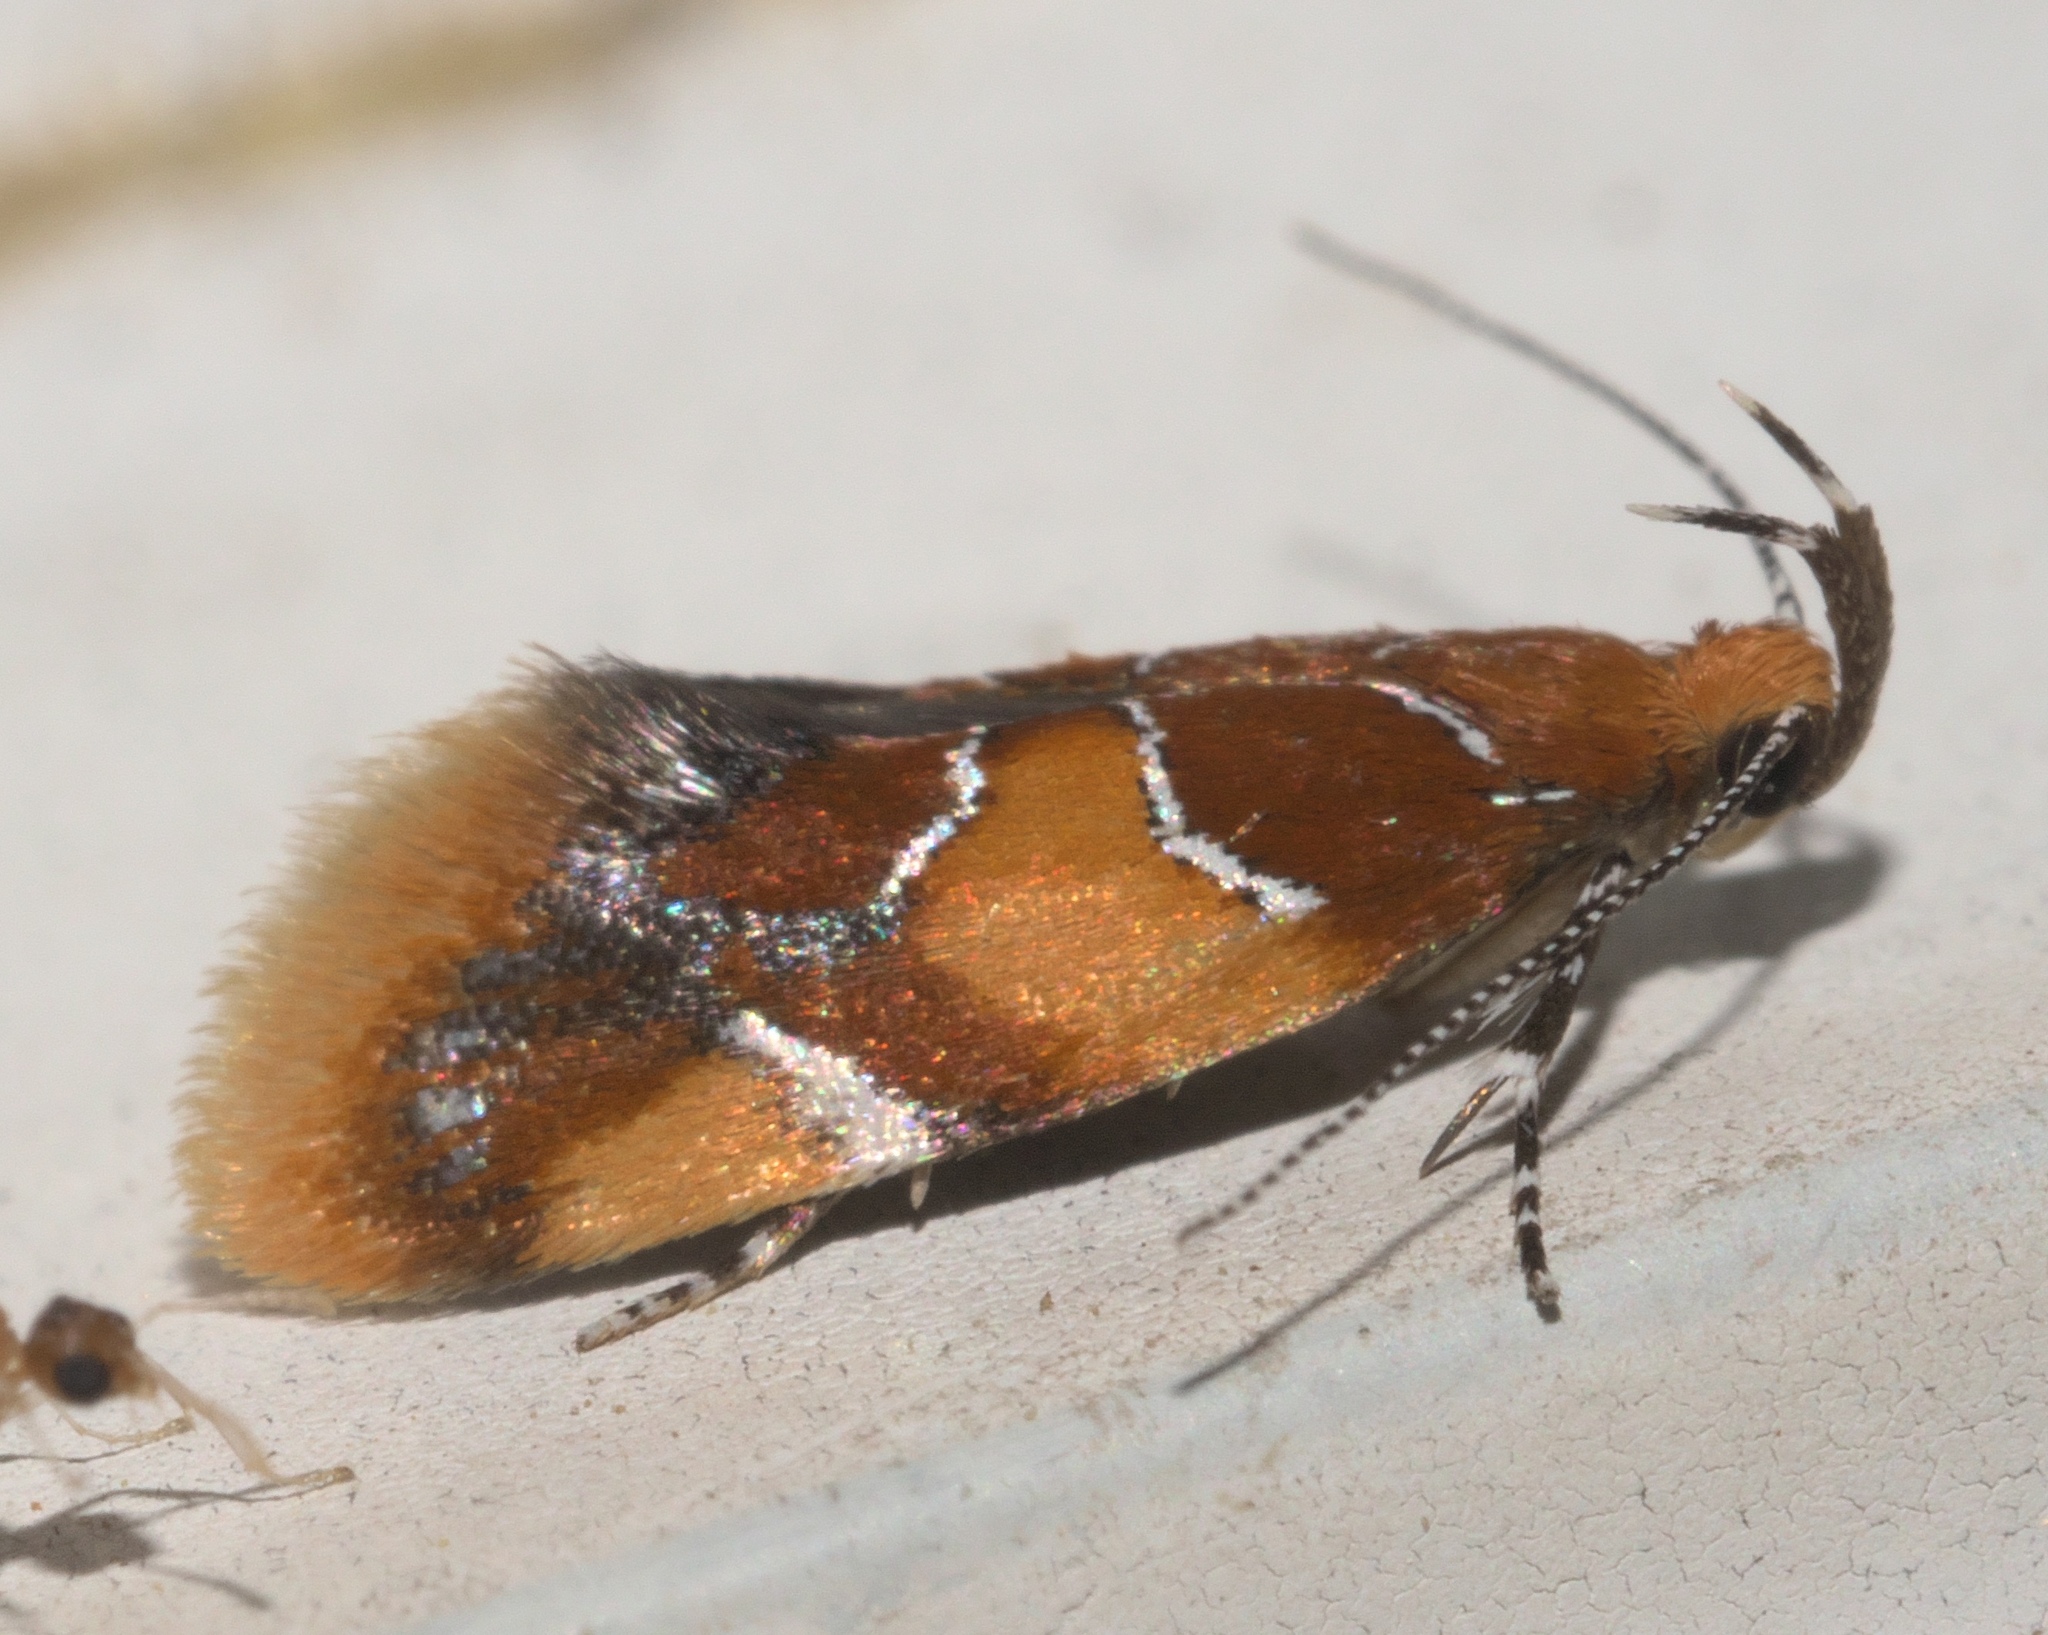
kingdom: Animalia
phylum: Arthropoda
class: Insecta
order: Lepidoptera
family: Oecophoridae
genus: Callima
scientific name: Callima argenticinctella
